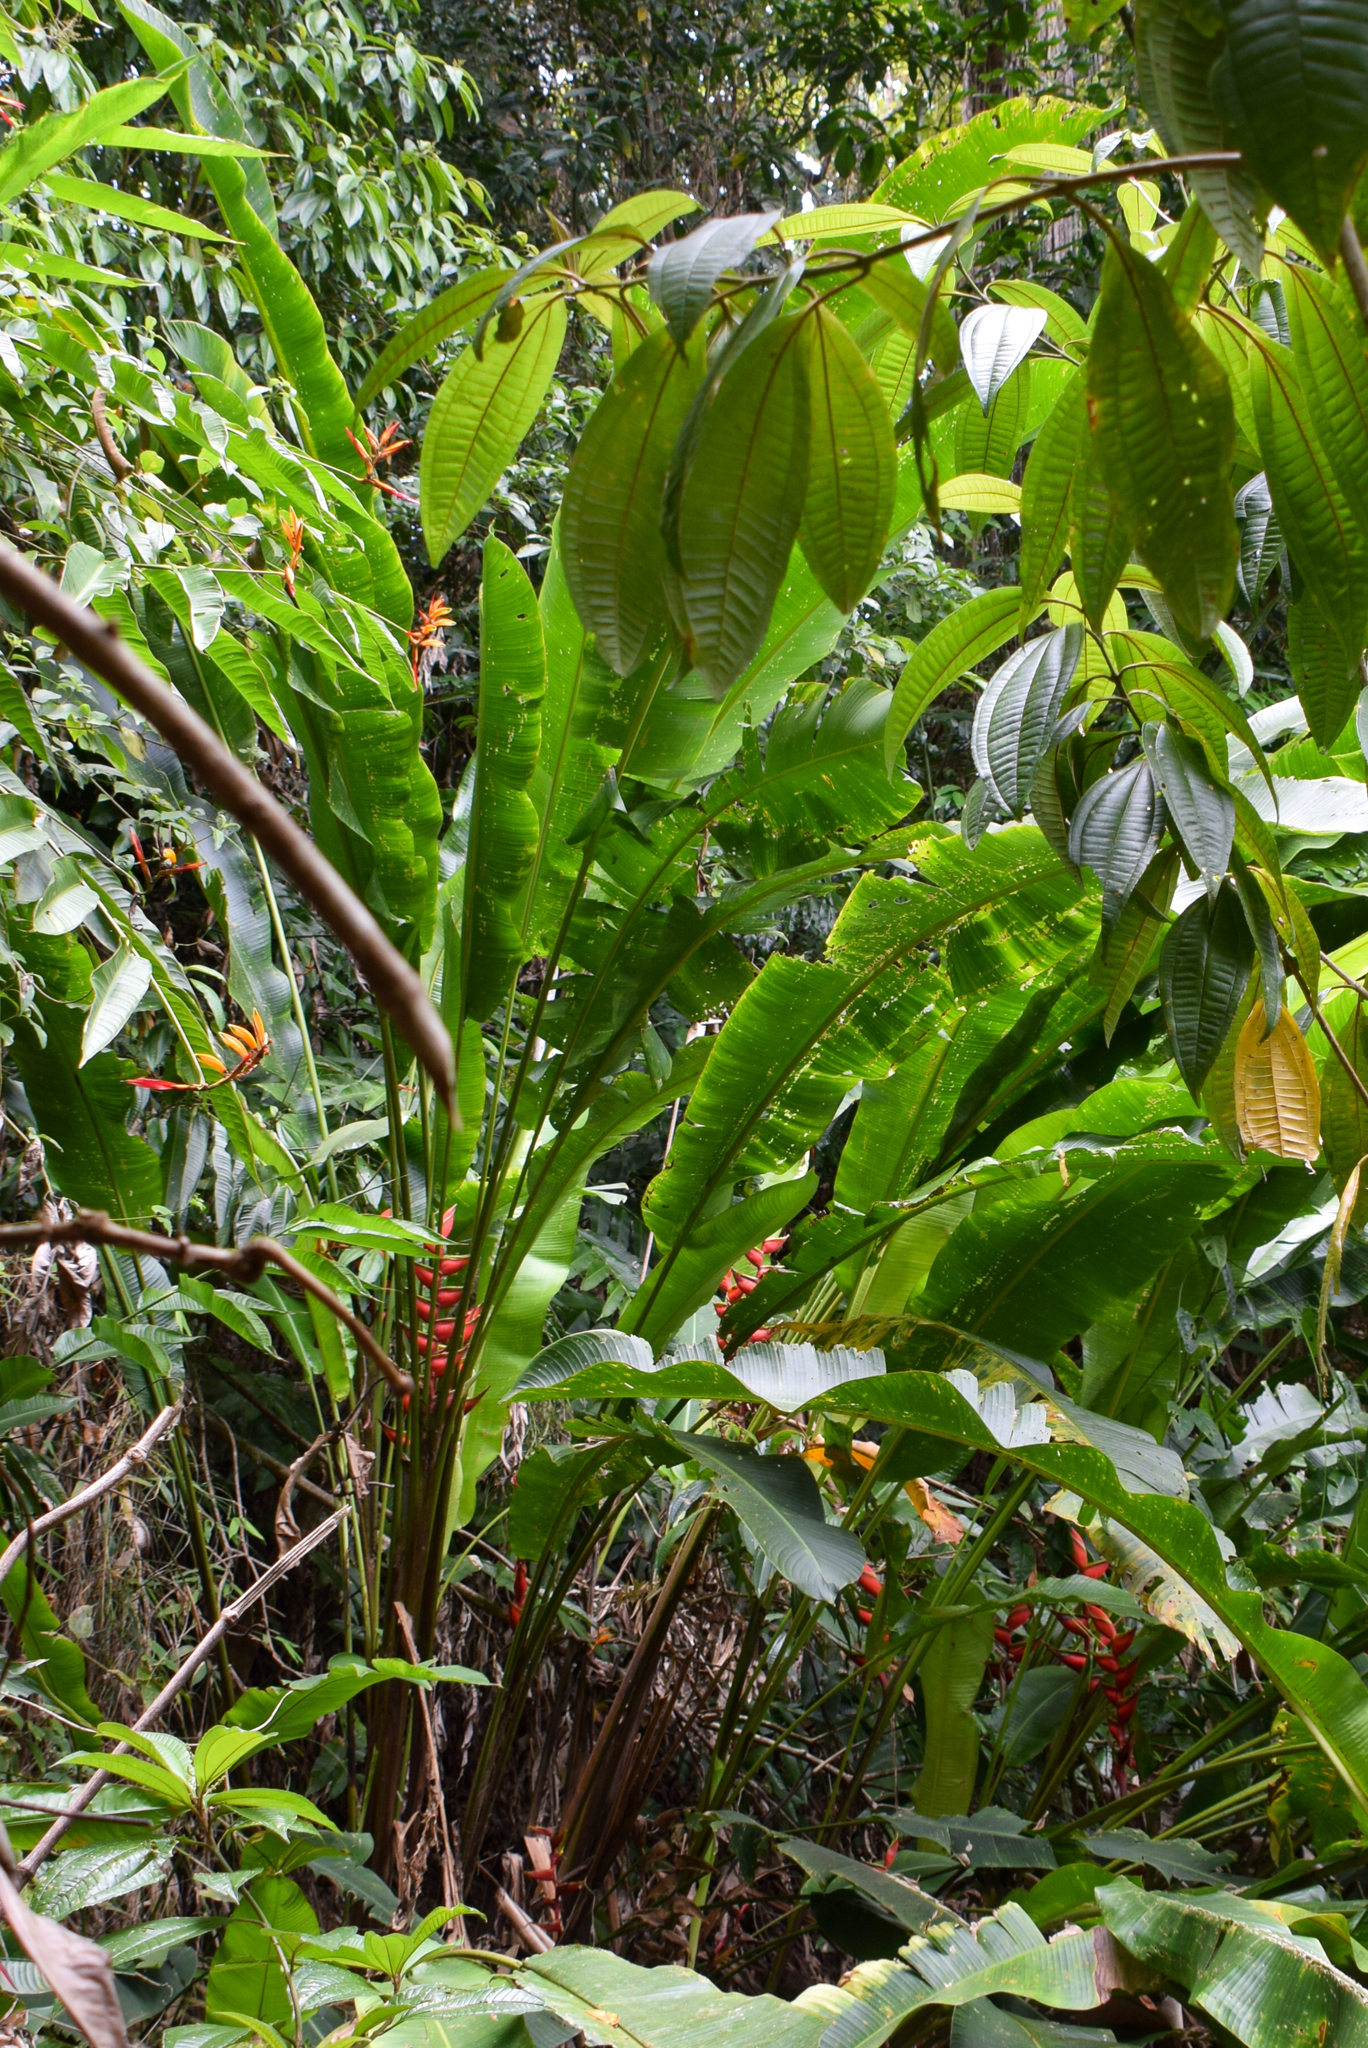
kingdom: Plantae
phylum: Tracheophyta
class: Liliopsida
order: Zingiberales
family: Heliconiaceae
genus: Heliconia
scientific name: Heliconia bihai
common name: Macaw flower
